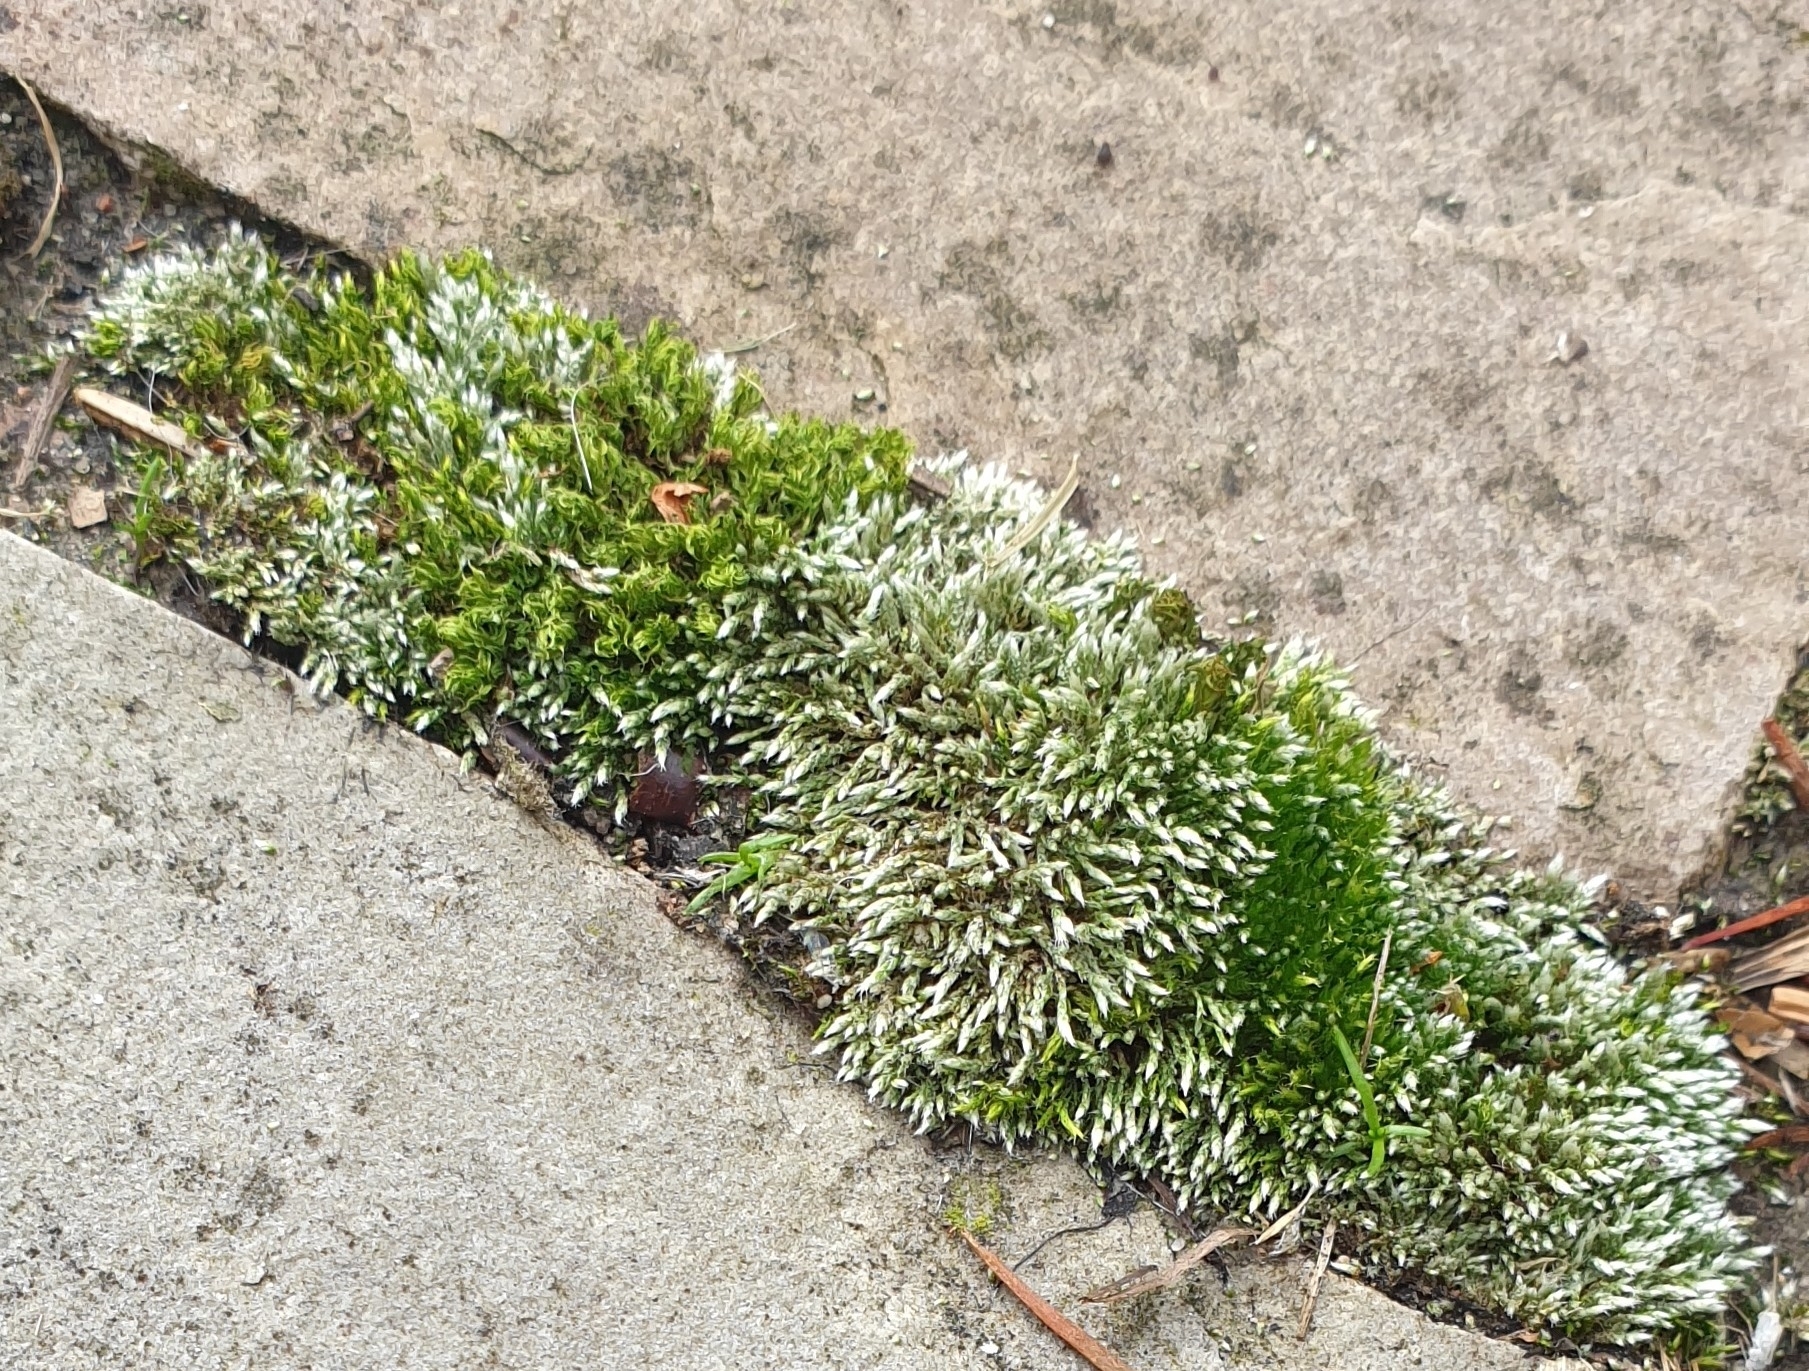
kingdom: Plantae
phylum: Bryophyta
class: Bryopsida
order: Bryales
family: Bryaceae
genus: Bryum
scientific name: Bryum argenteum
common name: Silver-moss
